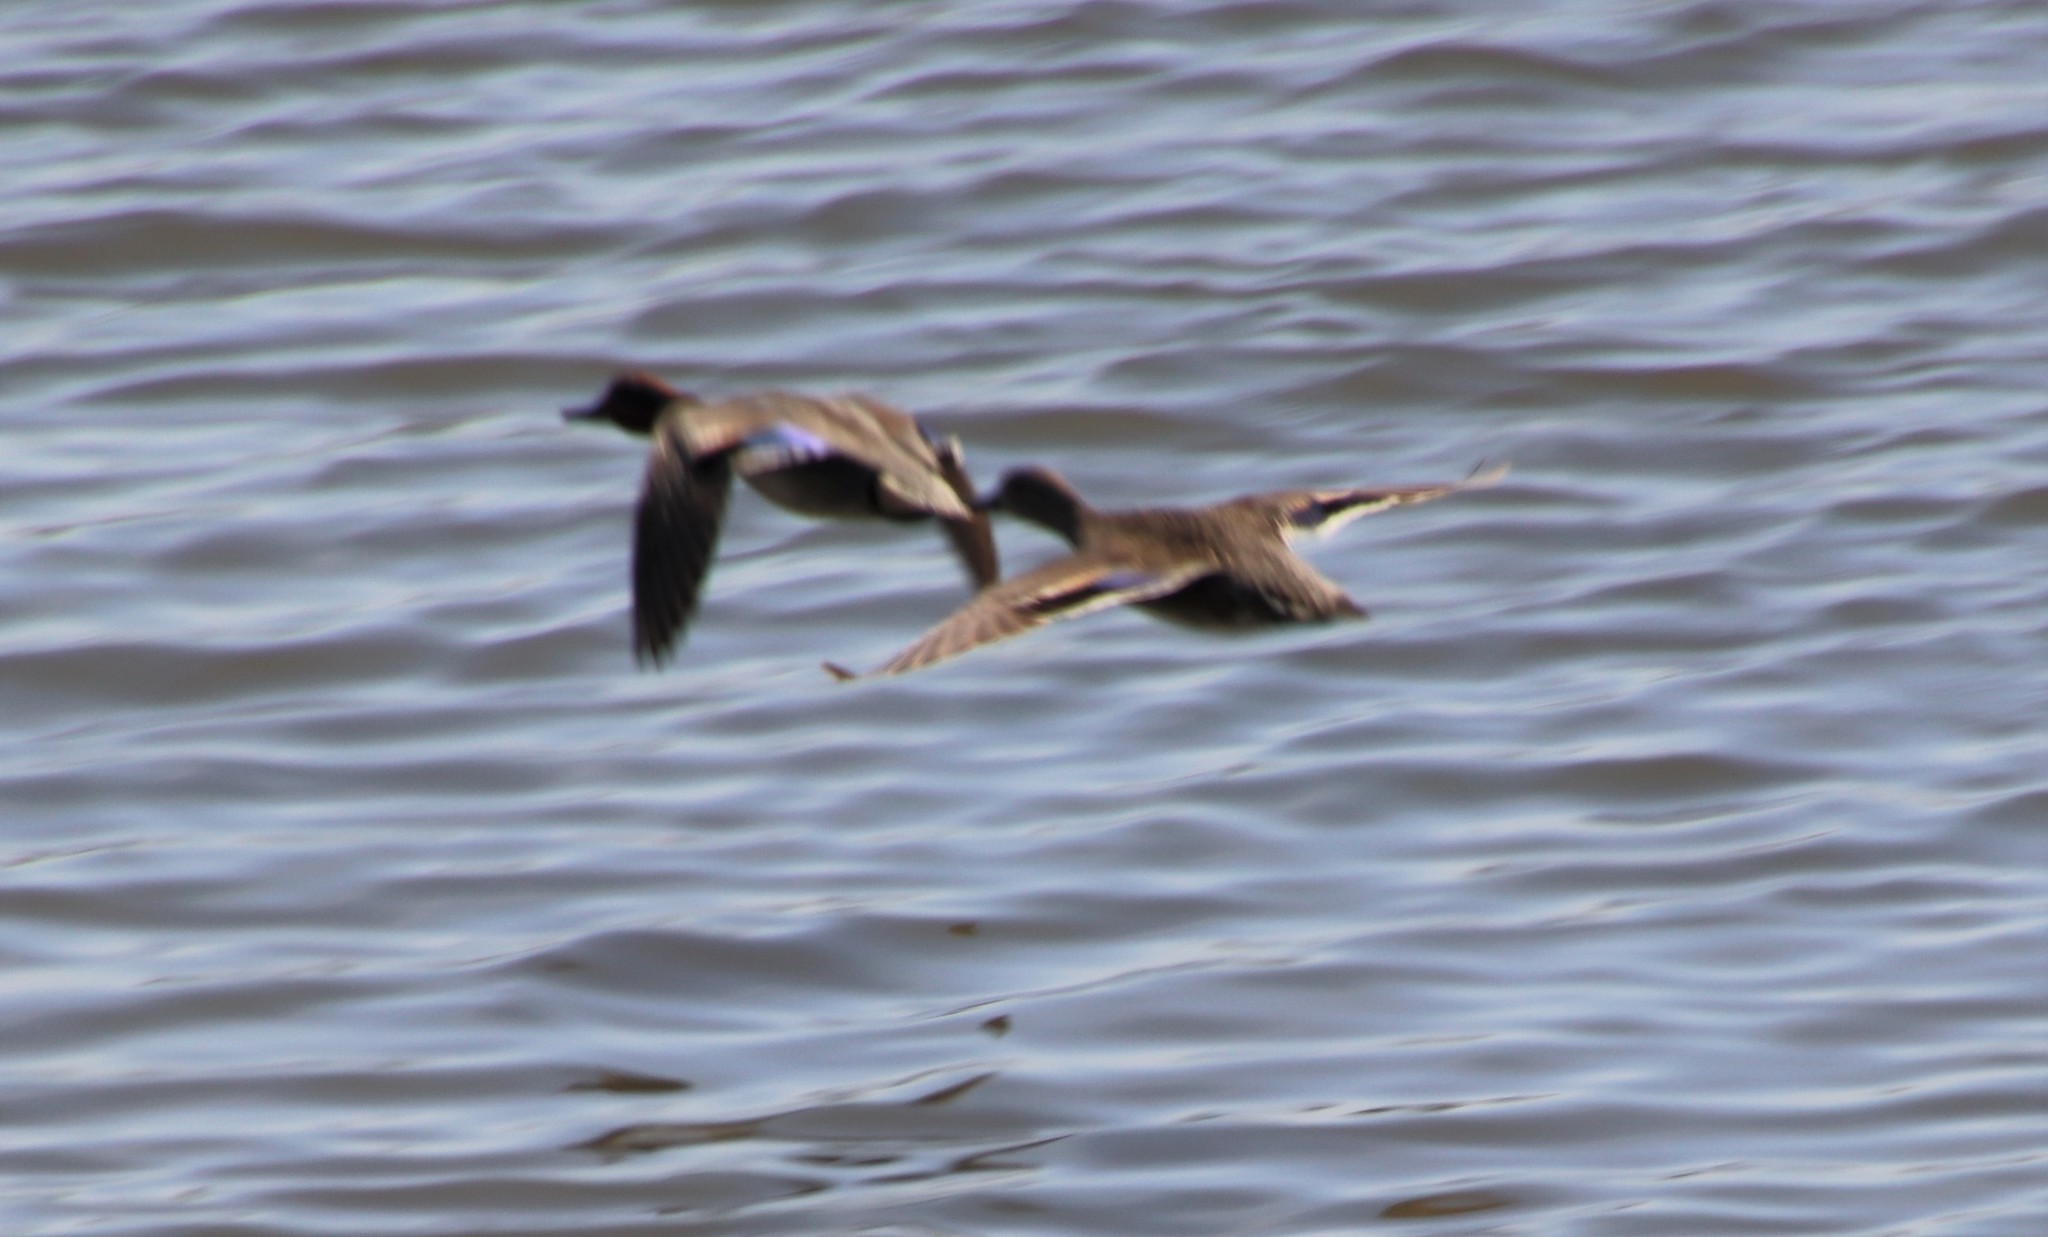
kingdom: Animalia
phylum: Chordata
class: Aves
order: Anseriformes
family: Anatidae
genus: Anas
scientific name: Anas crecca
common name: Eurasian teal
